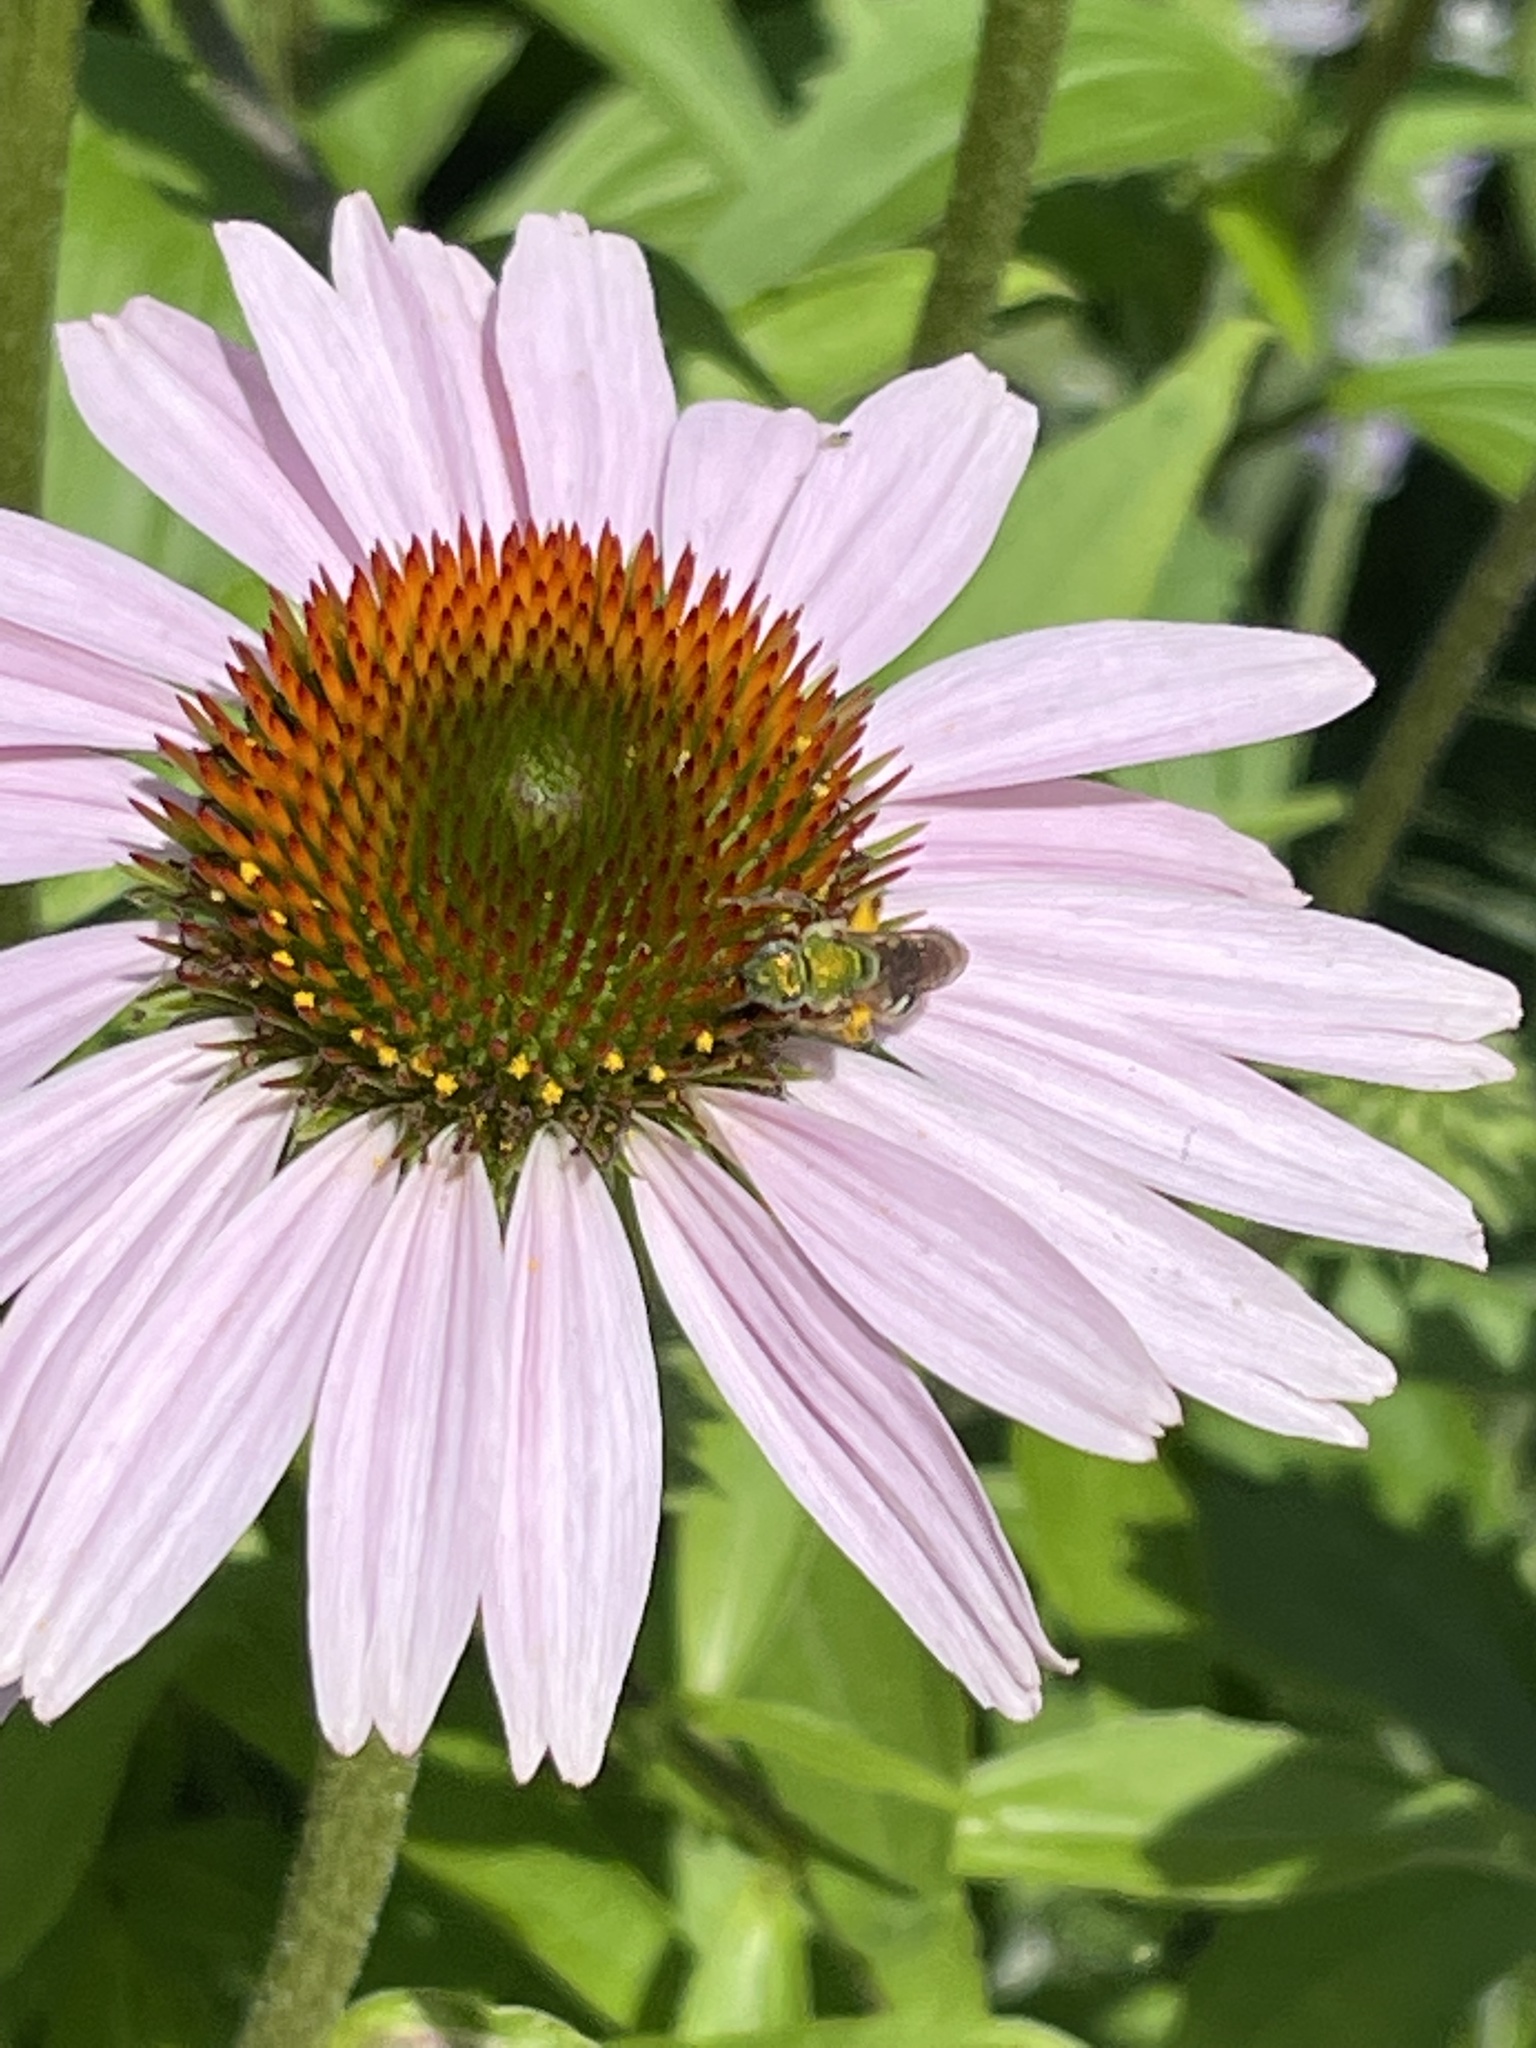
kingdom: Animalia
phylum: Arthropoda
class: Insecta
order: Hymenoptera
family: Halictidae
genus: Agapostemon
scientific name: Agapostemon virescens
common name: Bicolored striped sweat bee
